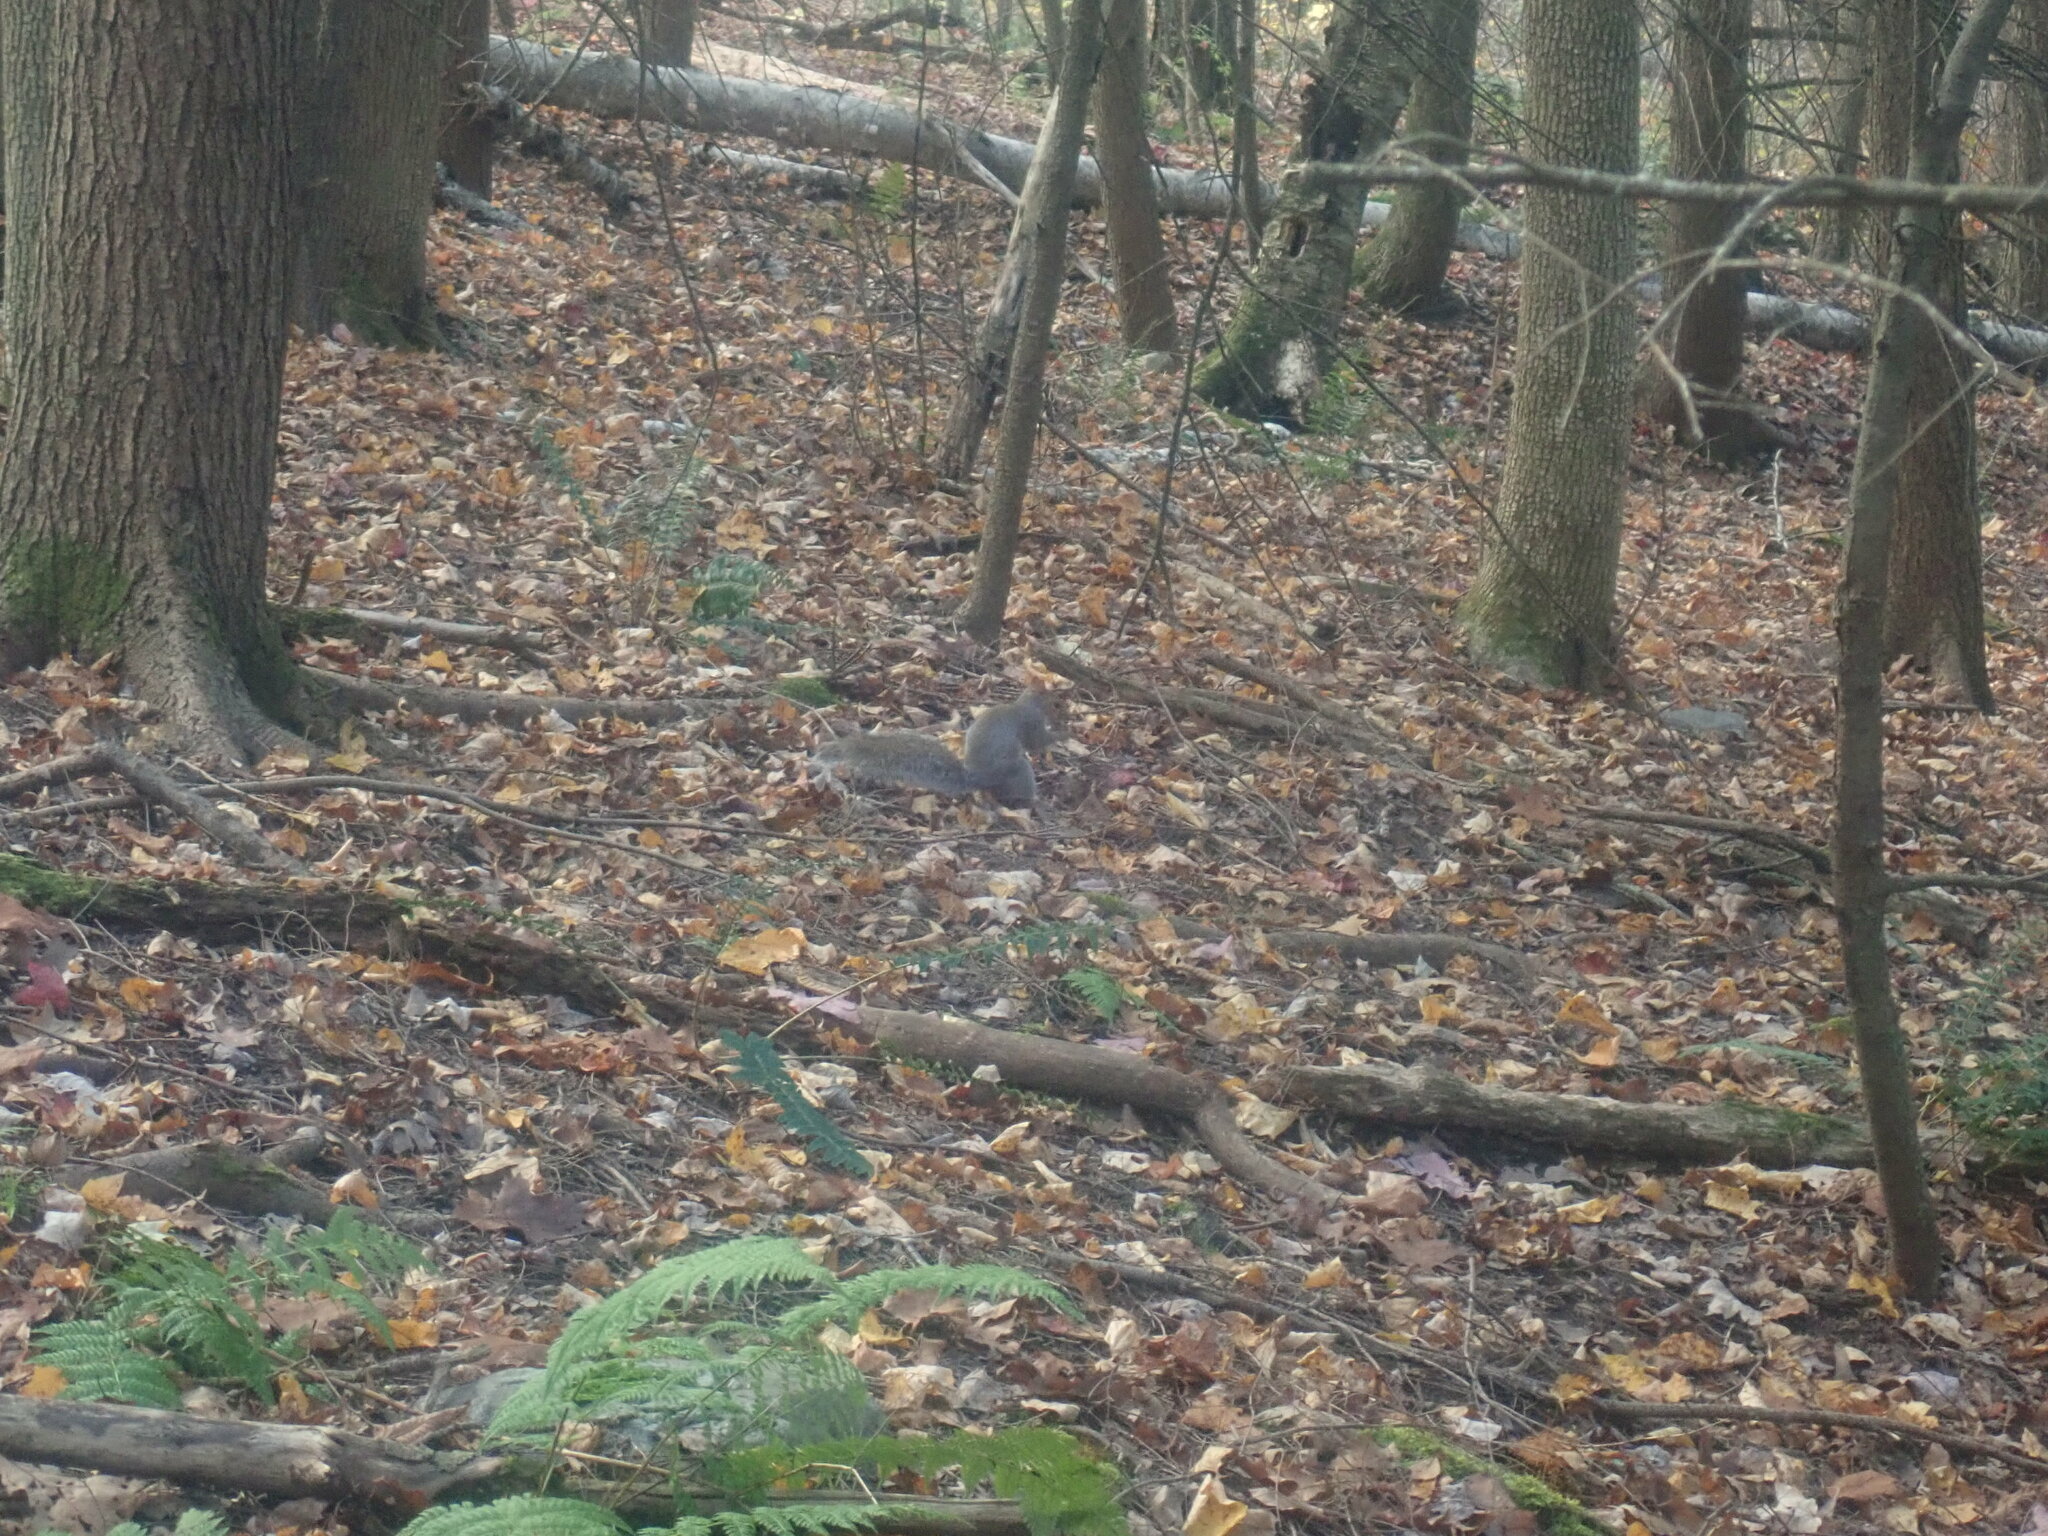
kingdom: Animalia
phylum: Chordata
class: Mammalia
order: Rodentia
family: Sciuridae
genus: Sciurus
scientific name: Sciurus carolinensis
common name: Eastern gray squirrel
